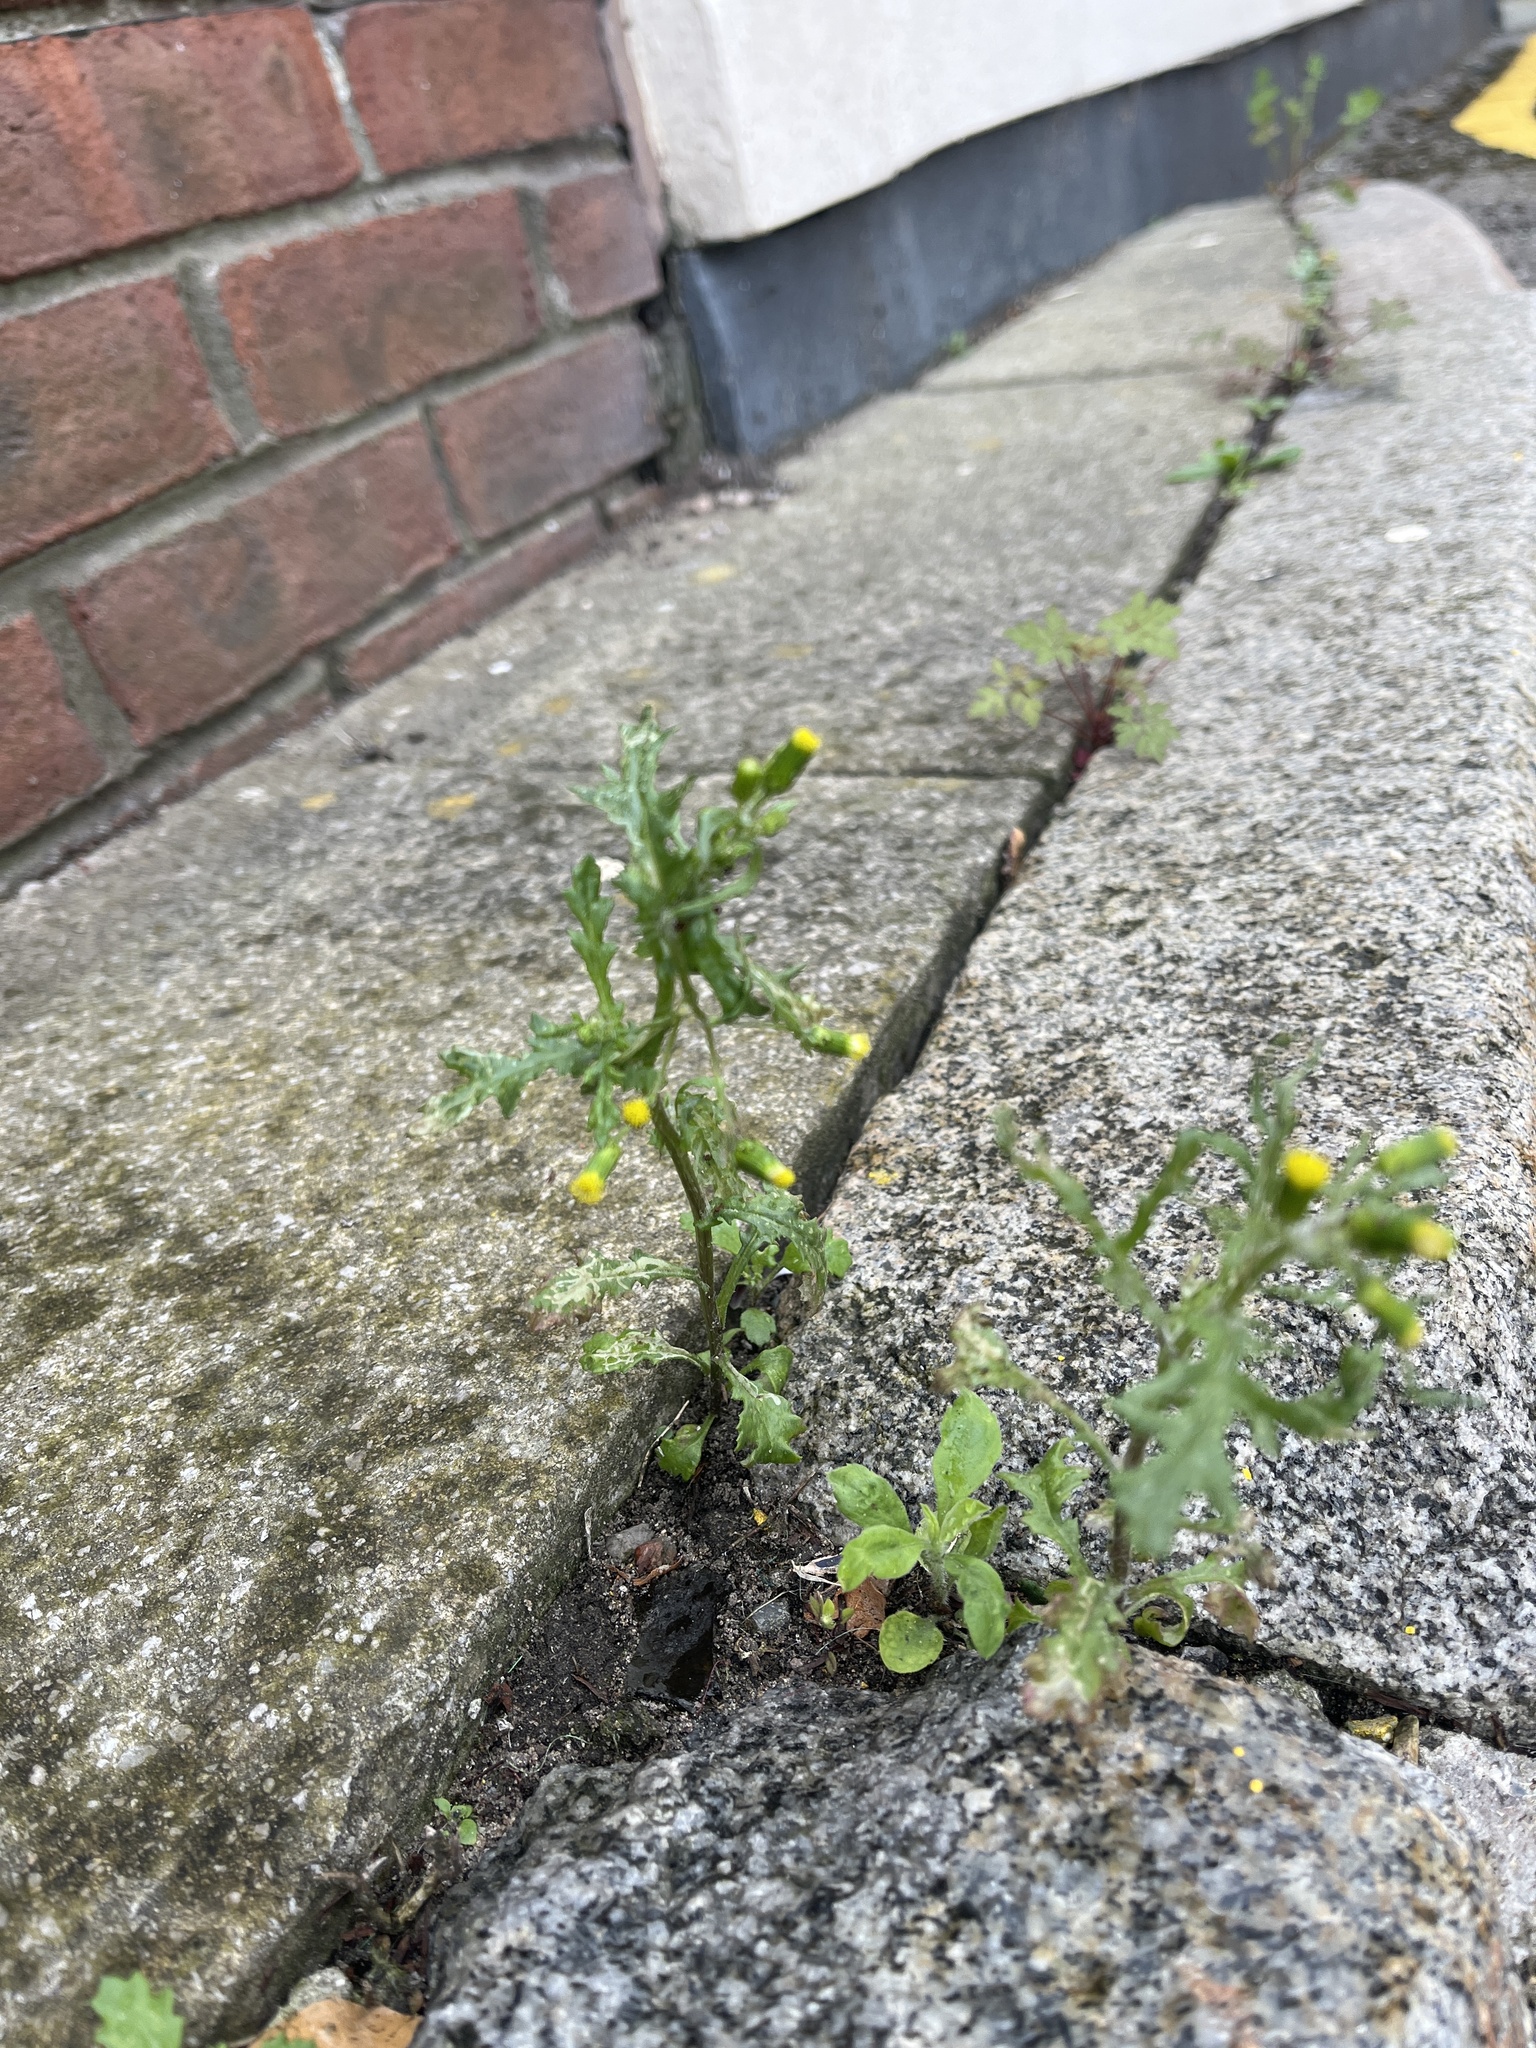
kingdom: Plantae
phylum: Tracheophyta
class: Magnoliopsida
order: Asterales
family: Asteraceae
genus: Senecio
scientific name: Senecio vulgaris
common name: Old-man-in-the-spring
